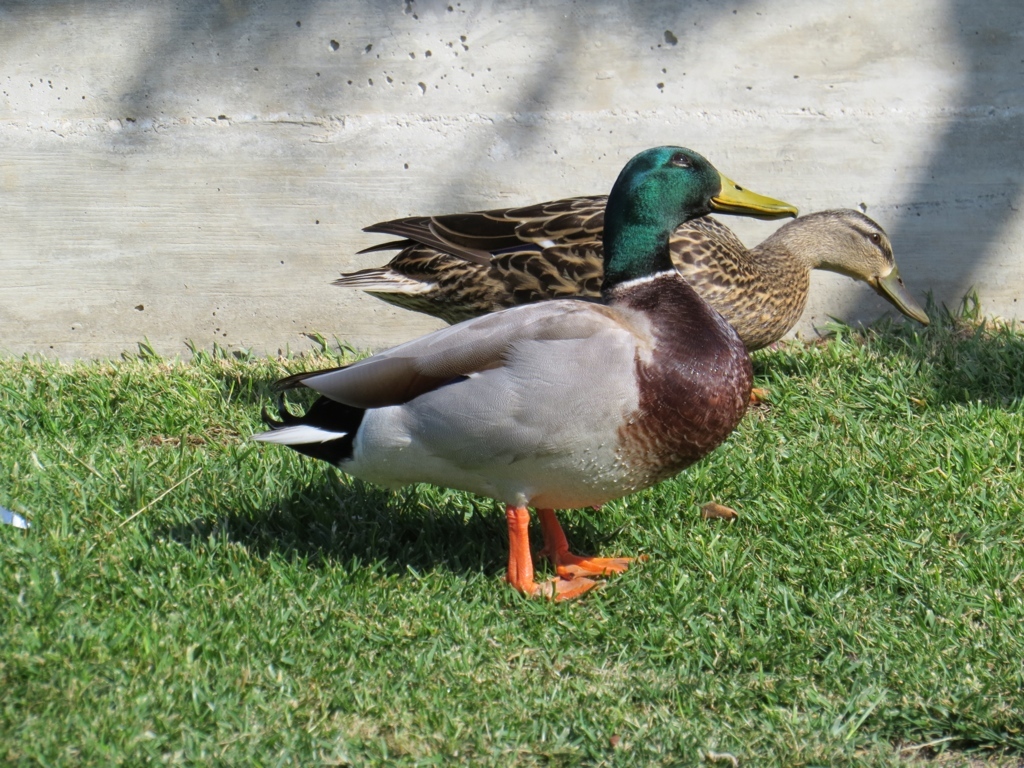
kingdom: Animalia
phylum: Chordata
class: Aves
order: Anseriformes
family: Anatidae
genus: Anas
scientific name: Anas platyrhynchos
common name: Mallard
